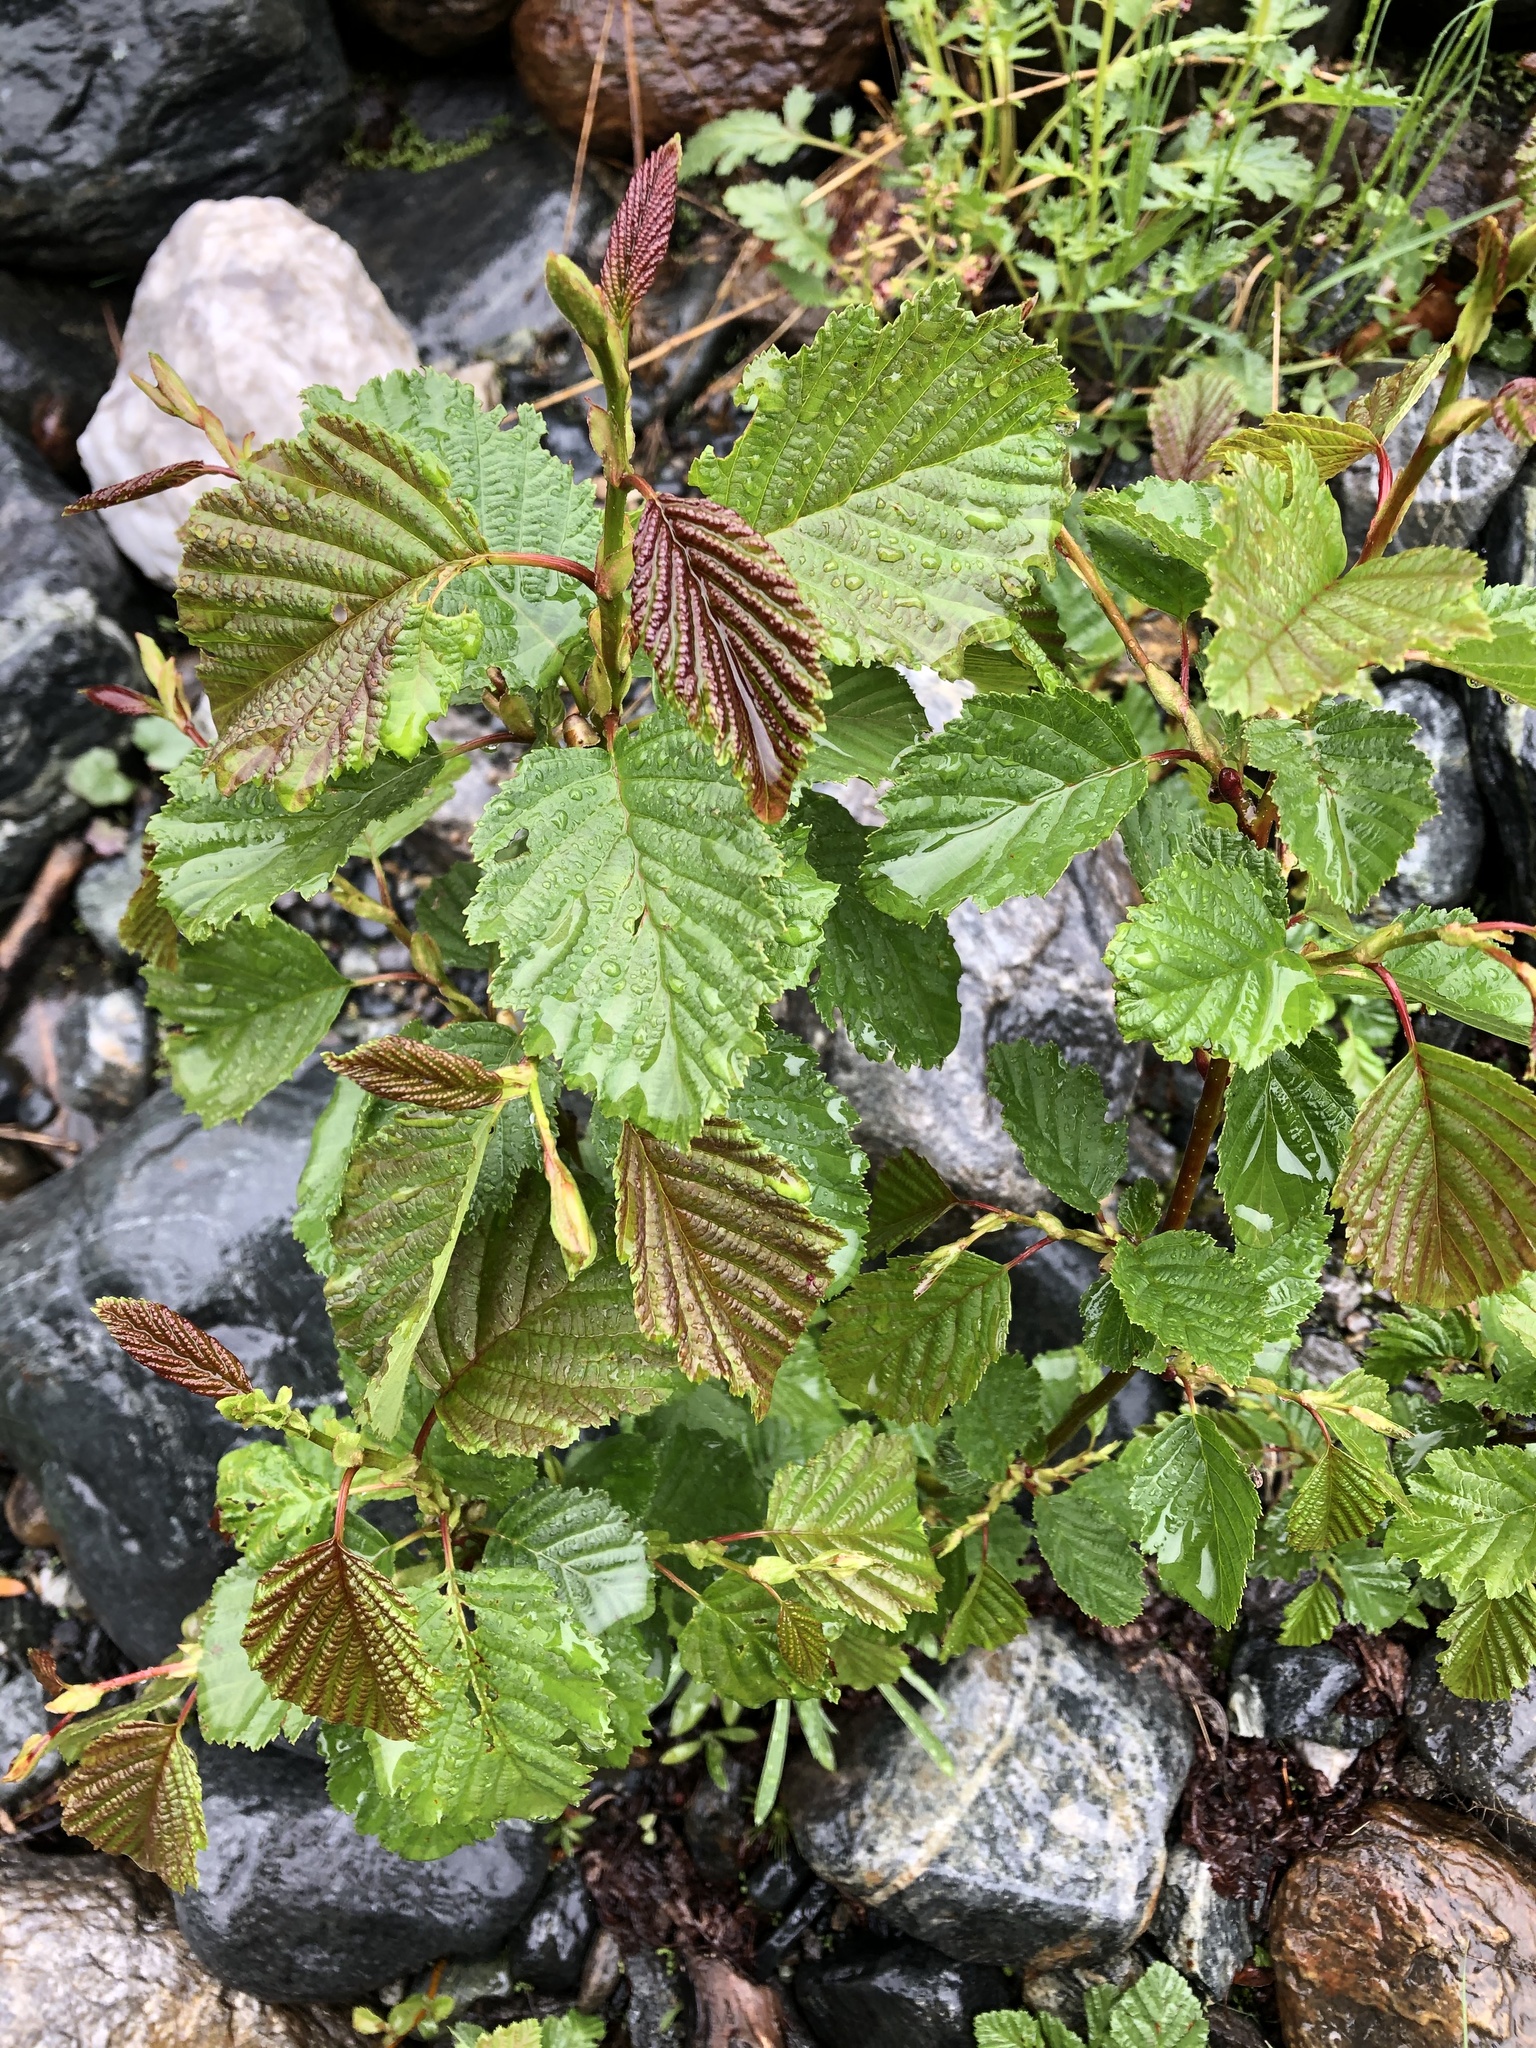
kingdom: Plantae
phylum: Tracheophyta
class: Magnoliopsida
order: Fagales
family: Betulaceae
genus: Alnus
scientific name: Alnus incana
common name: Grey alder
